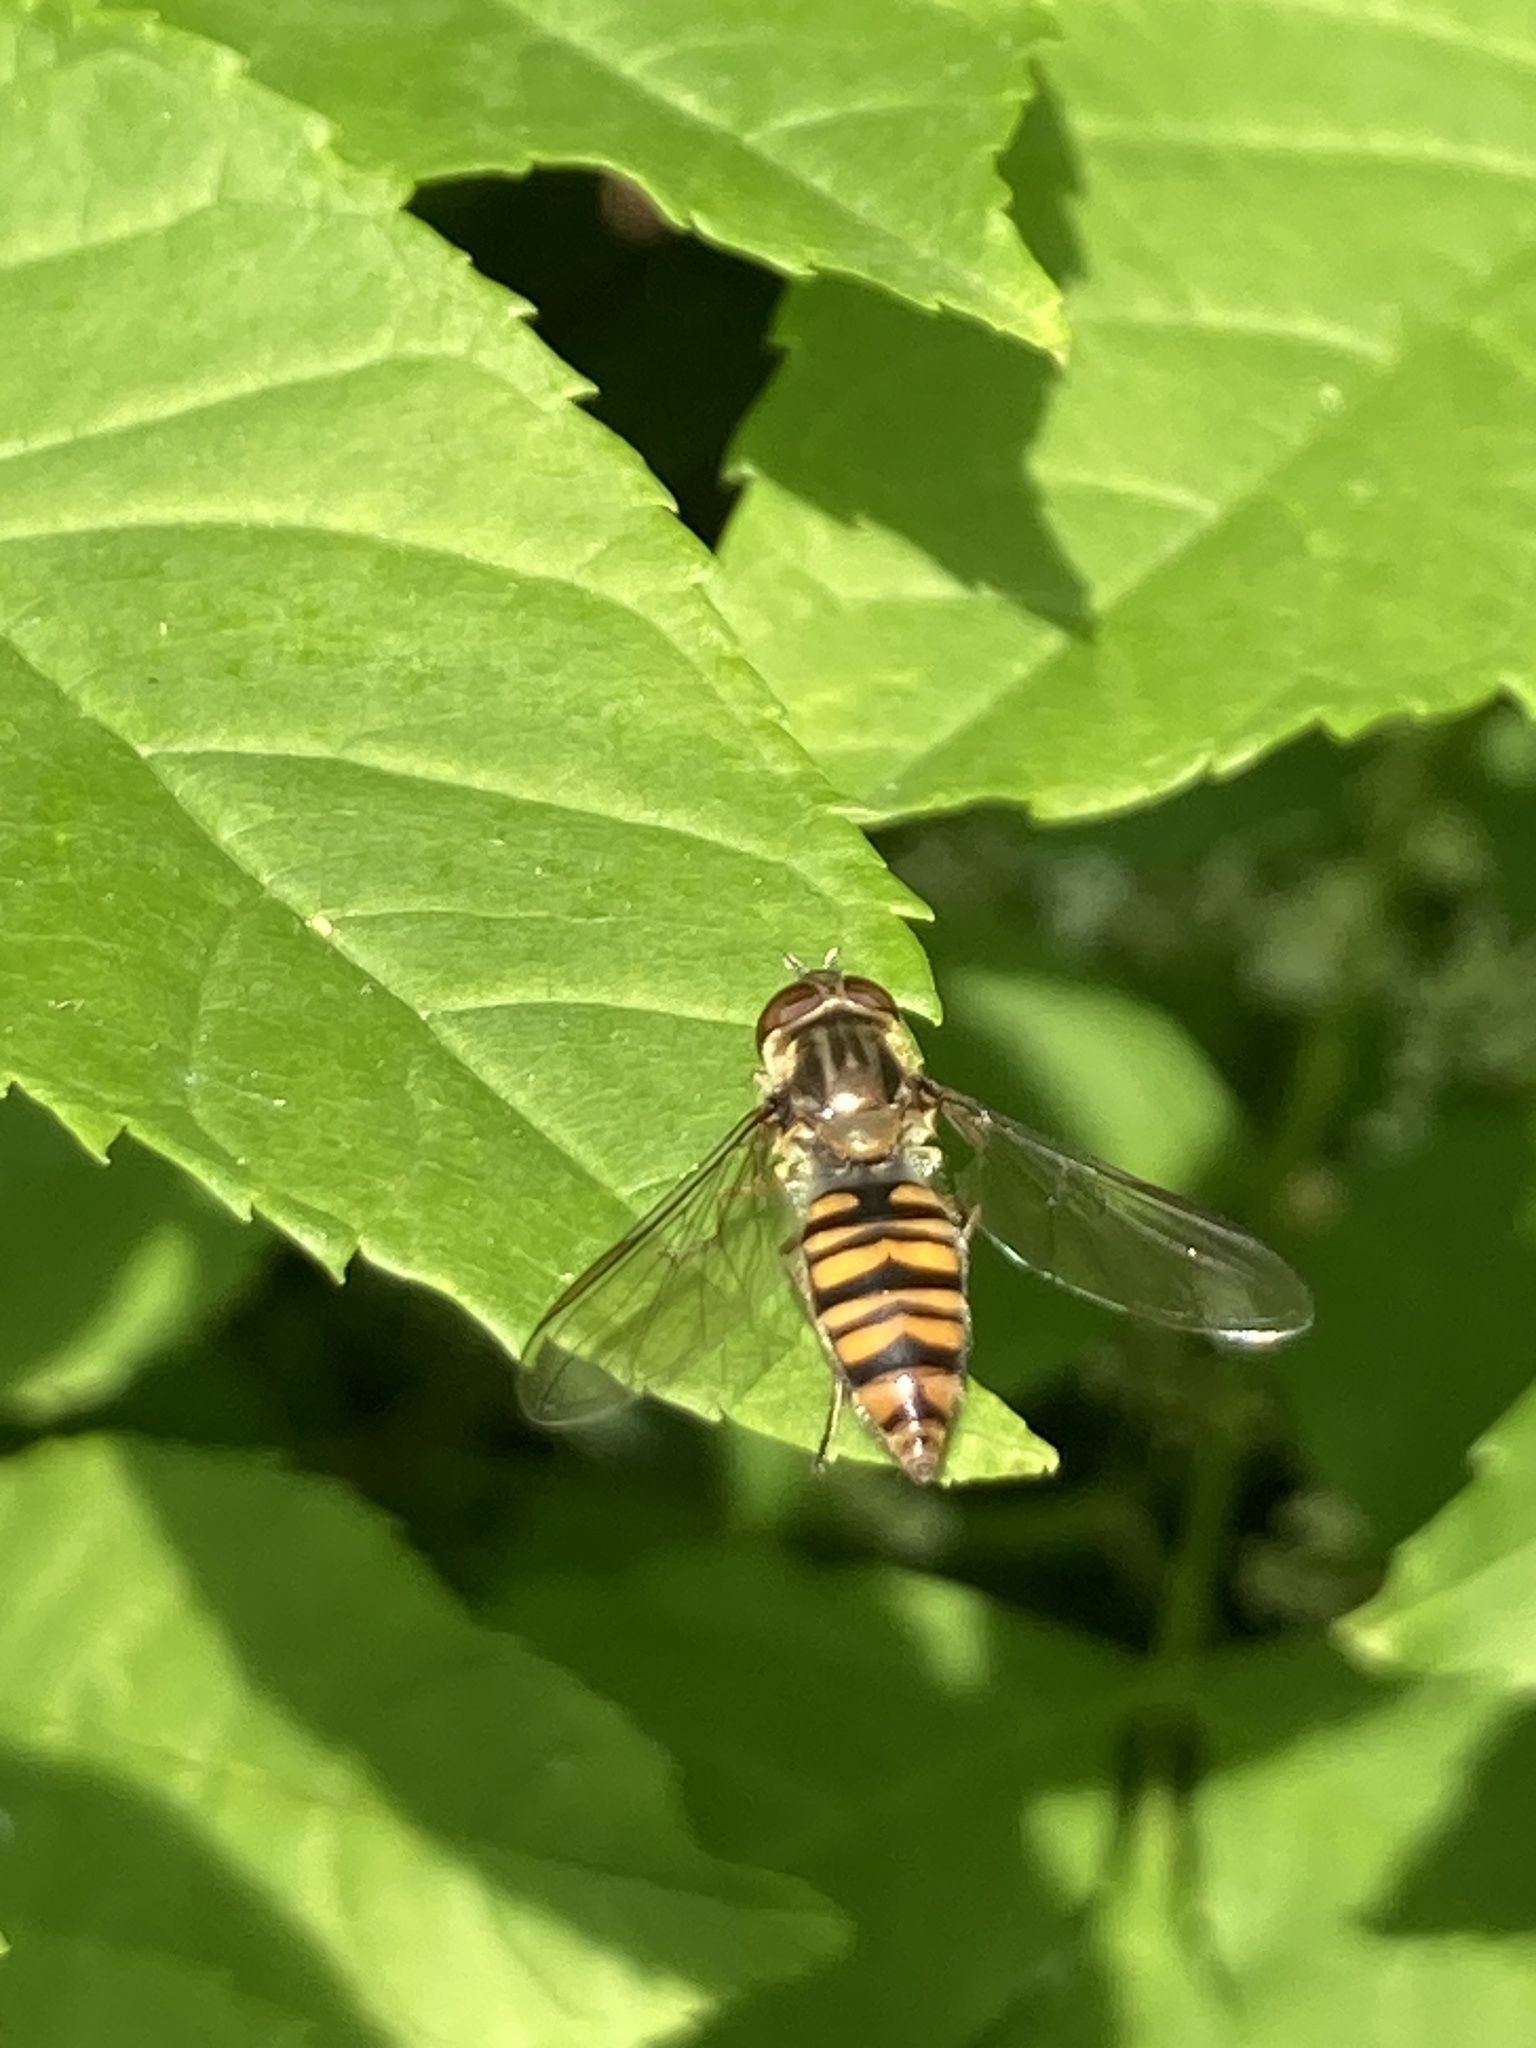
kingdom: Animalia
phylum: Arthropoda
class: Insecta
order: Diptera
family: Syrphidae
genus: Episyrphus
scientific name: Episyrphus balteatus
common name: Marmalade hoverfly
